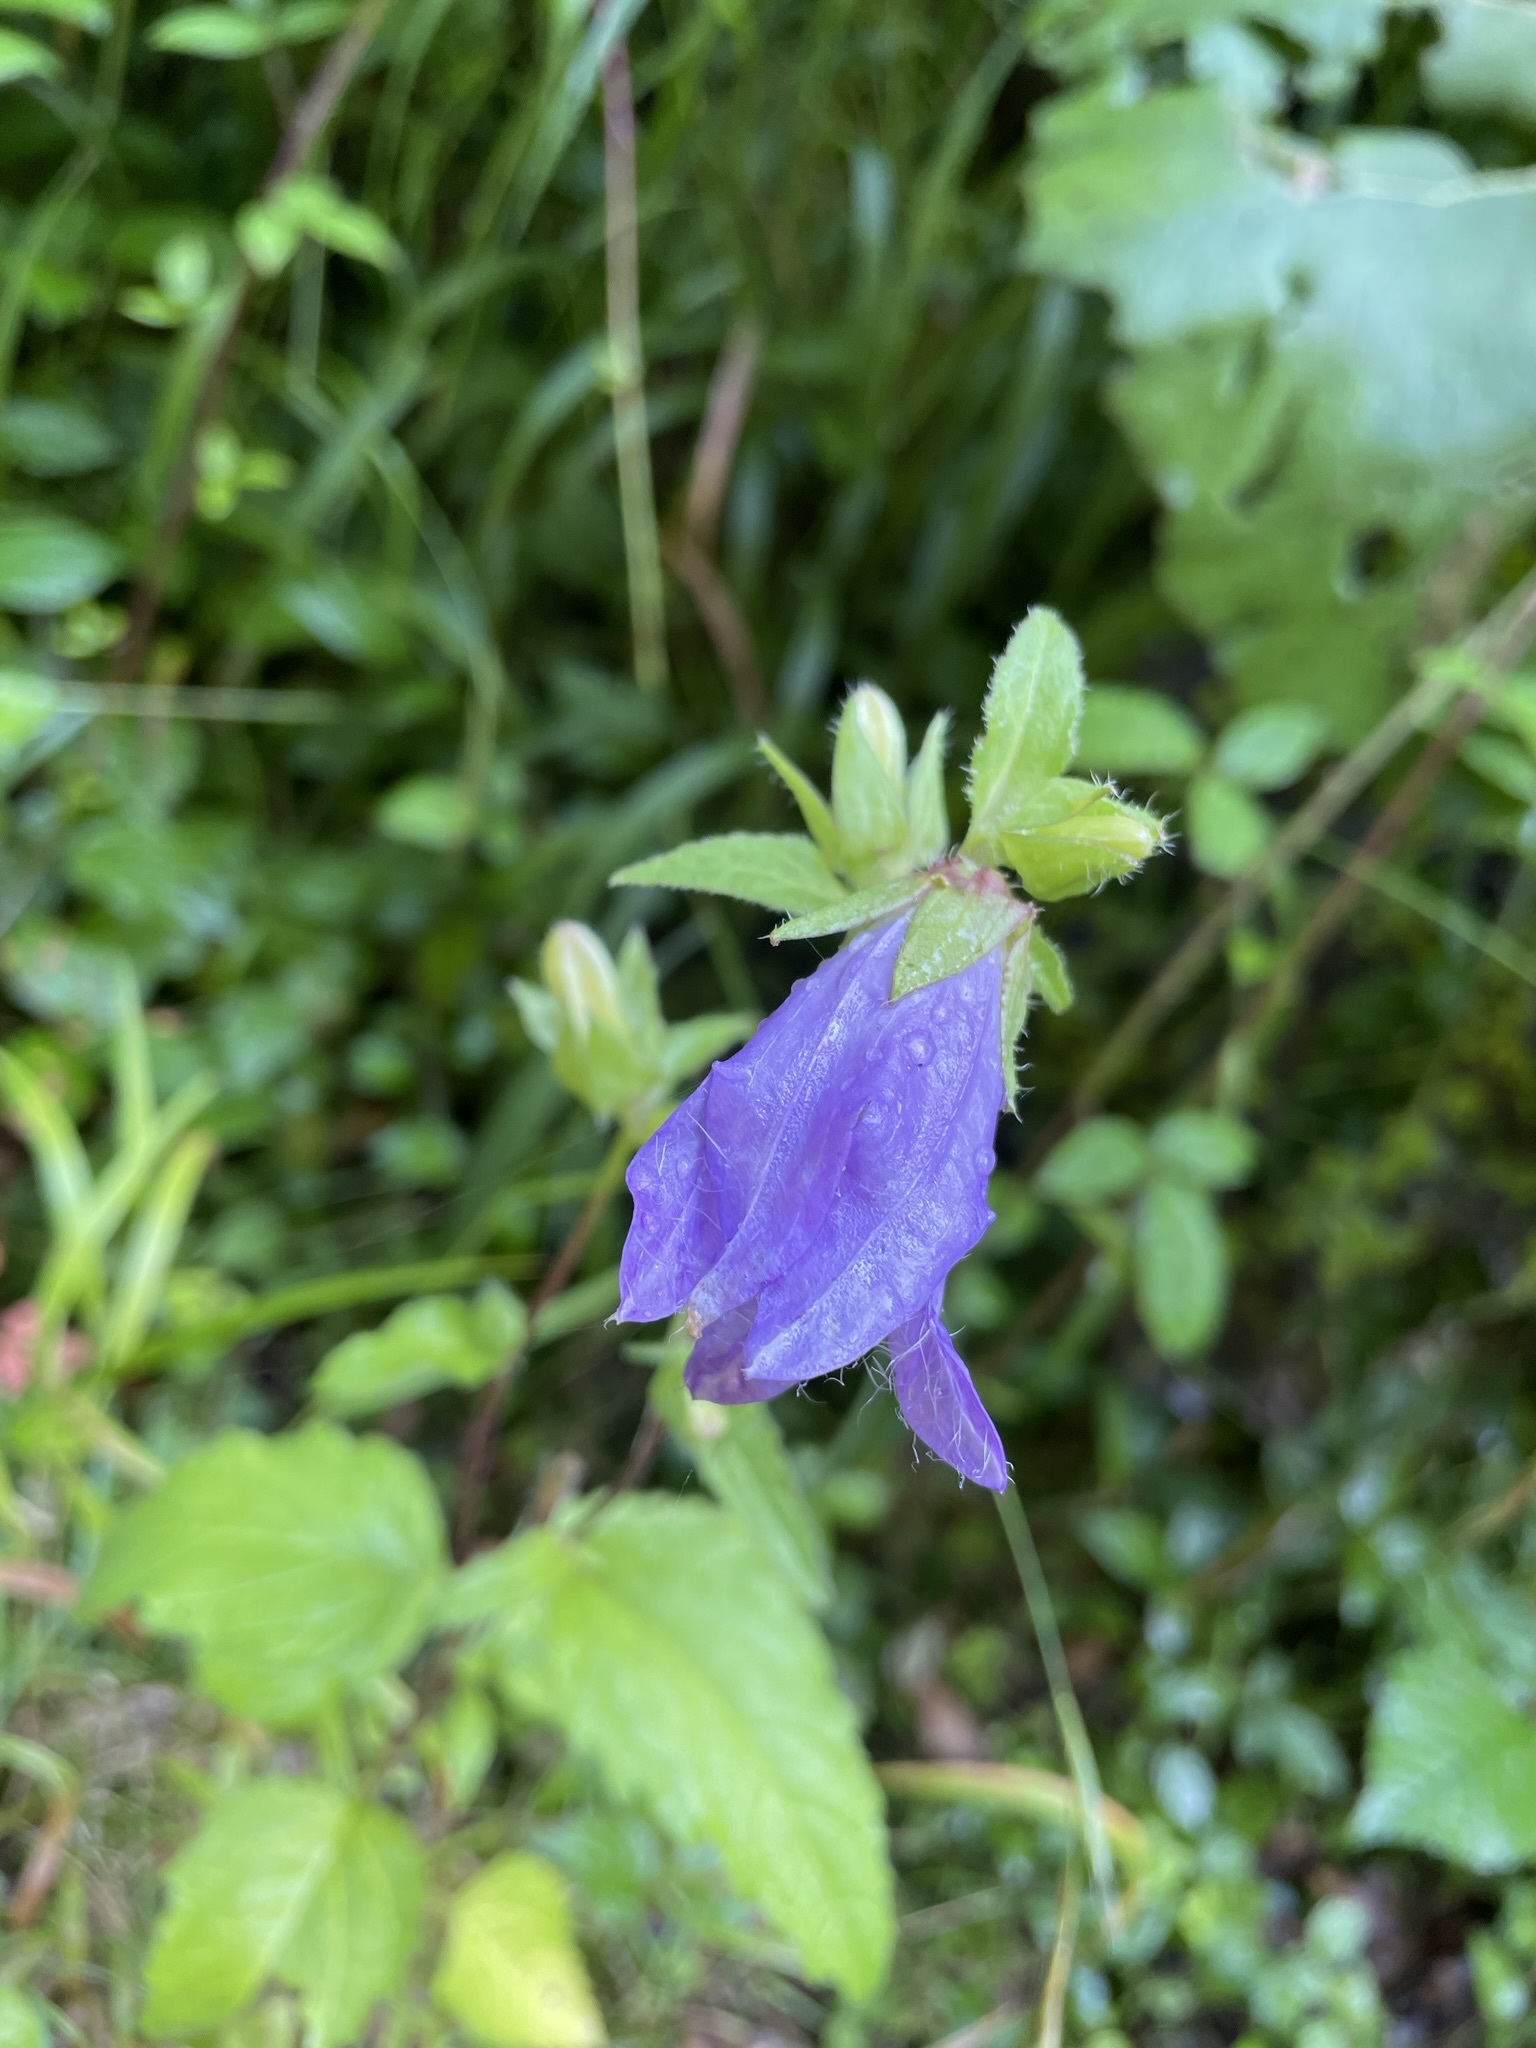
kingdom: Plantae
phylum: Tracheophyta
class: Magnoliopsida
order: Asterales
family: Campanulaceae
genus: Campanula
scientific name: Campanula trachelium
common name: Nettle-leaved bellflower
